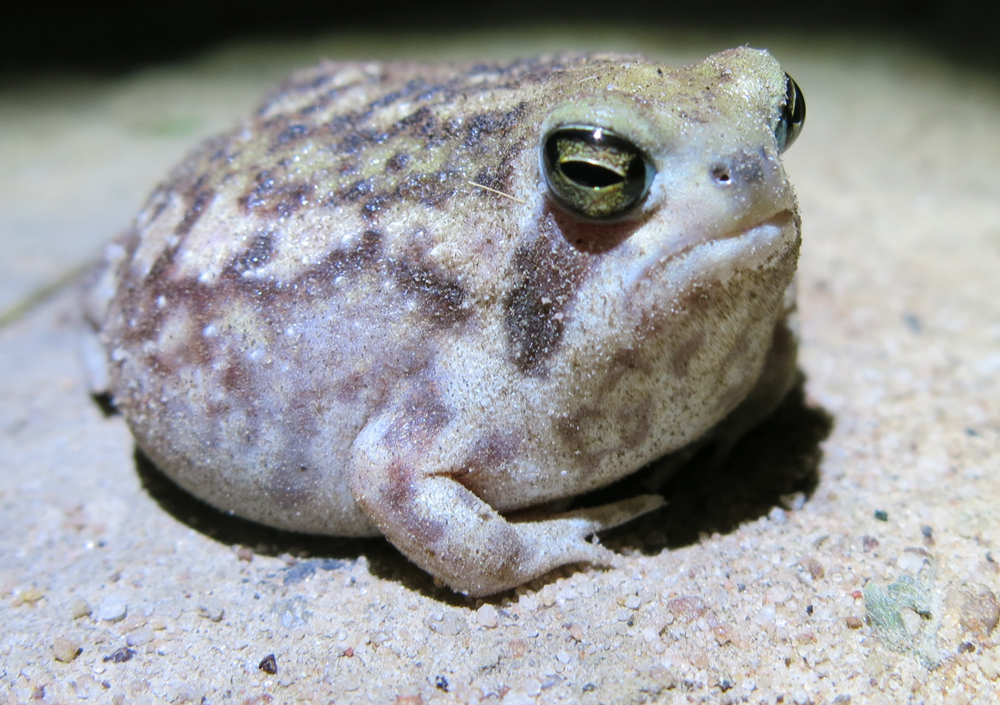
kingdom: Animalia
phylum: Chordata
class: Amphibia
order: Anura
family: Brevicipitidae
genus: Breviceps
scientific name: Breviceps adspersus
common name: Common rain frog
